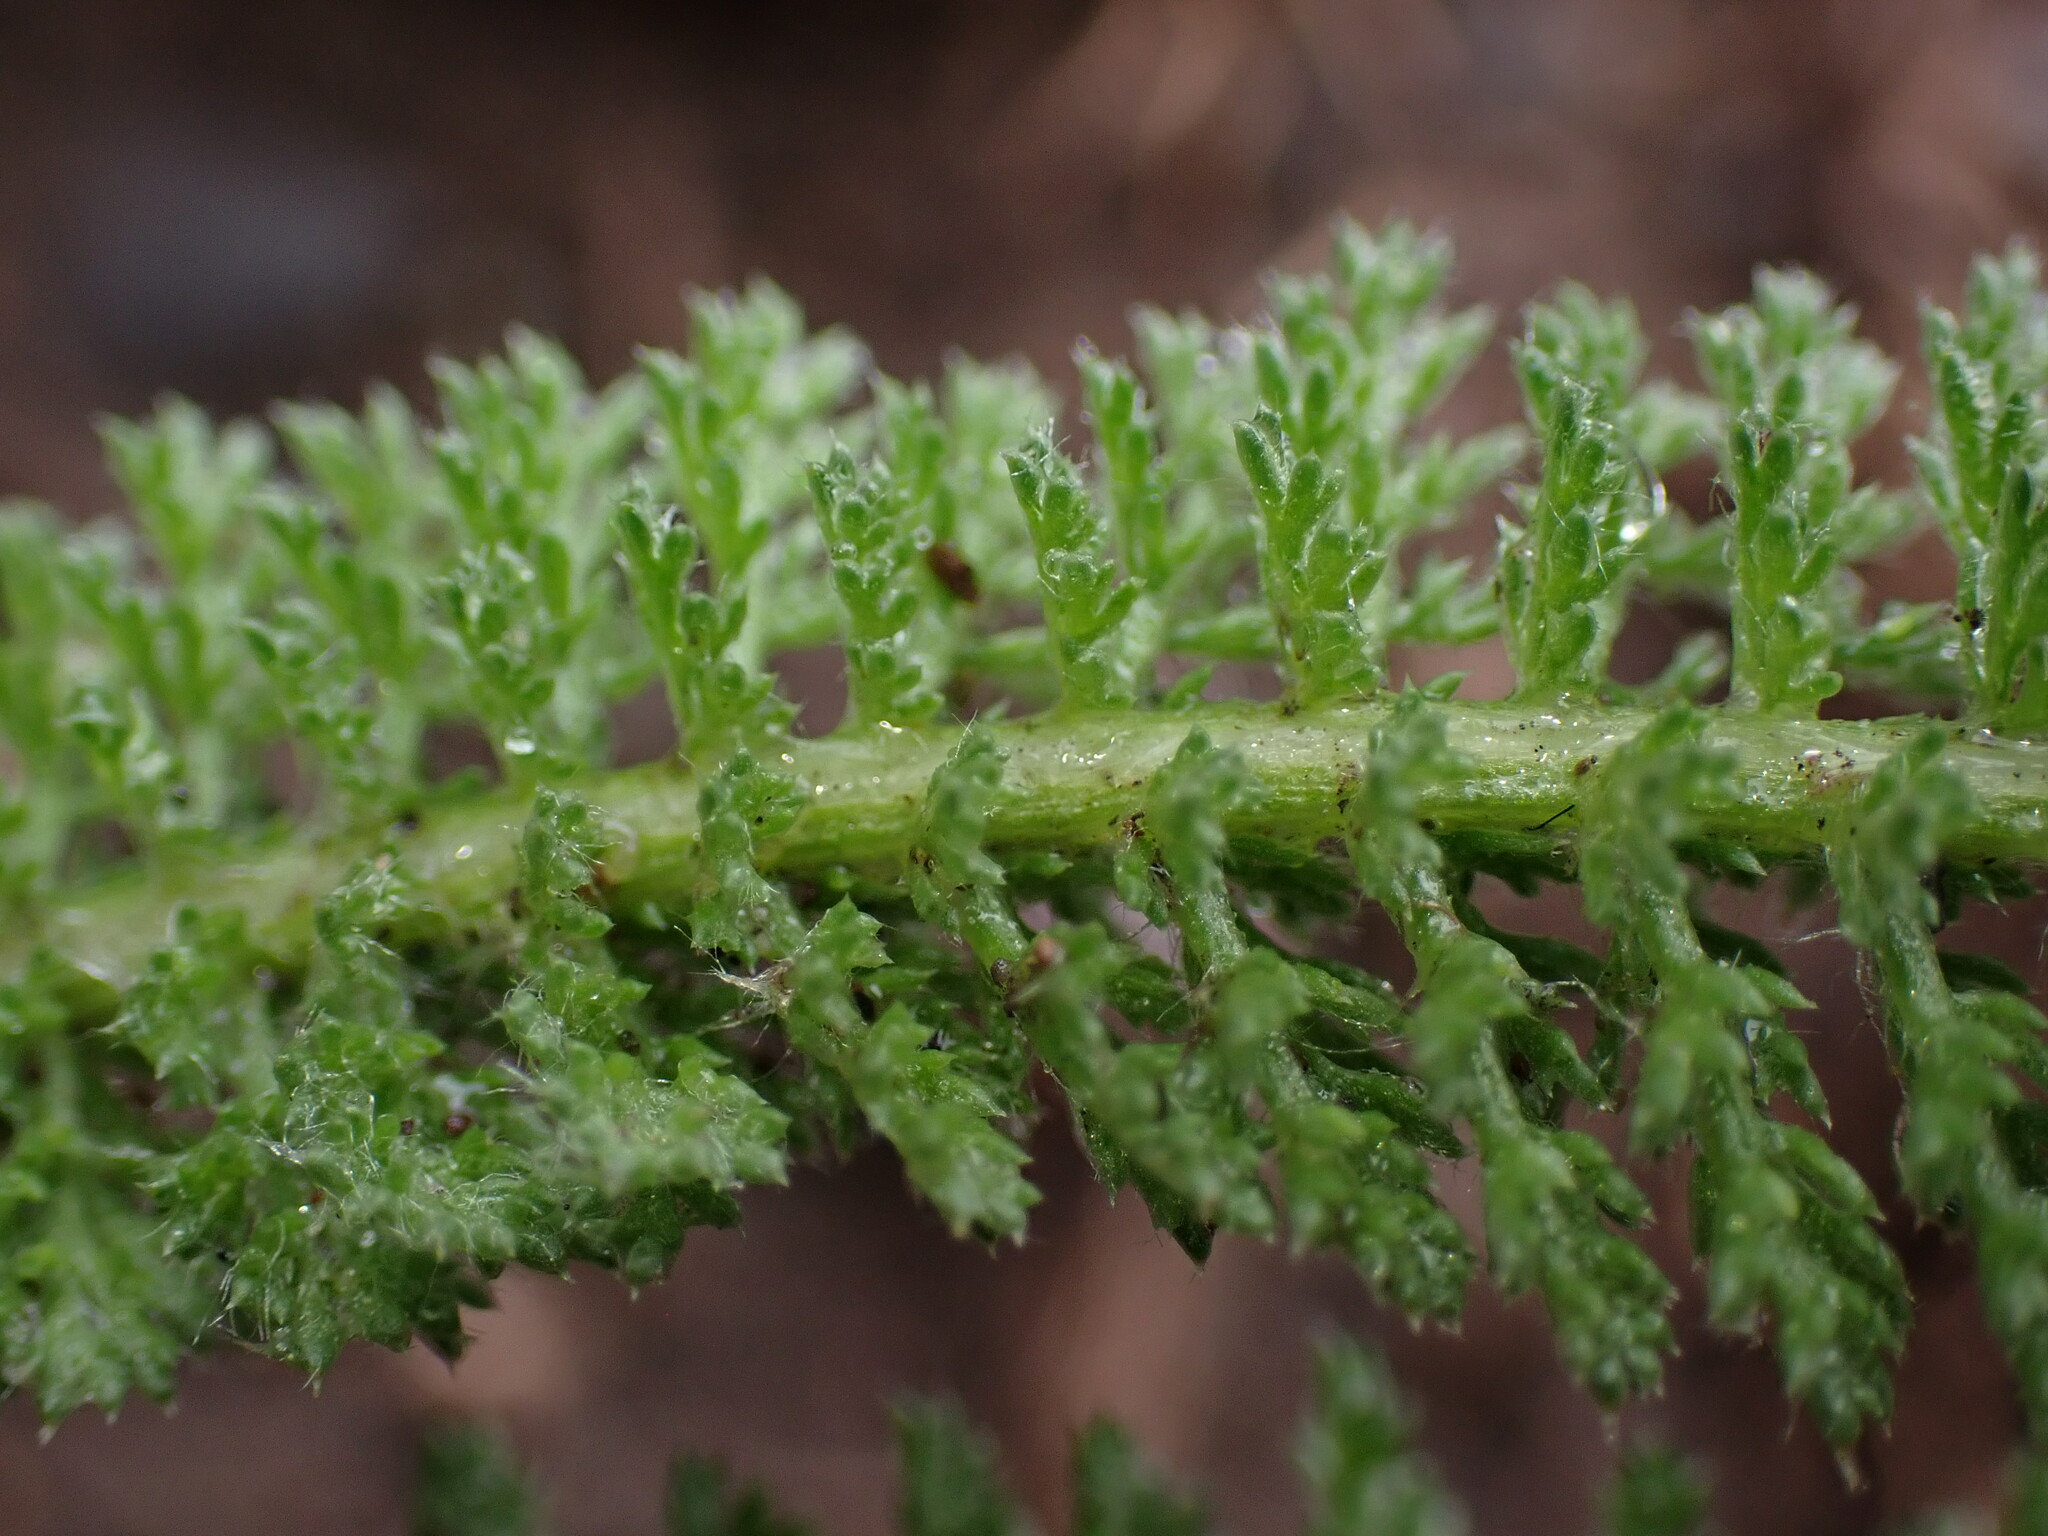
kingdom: Plantae
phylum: Tracheophyta
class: Magnoliopsida
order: Asterales
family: Asteraceae
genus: Achillea
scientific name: Achillea millefolium
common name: Yarrow
